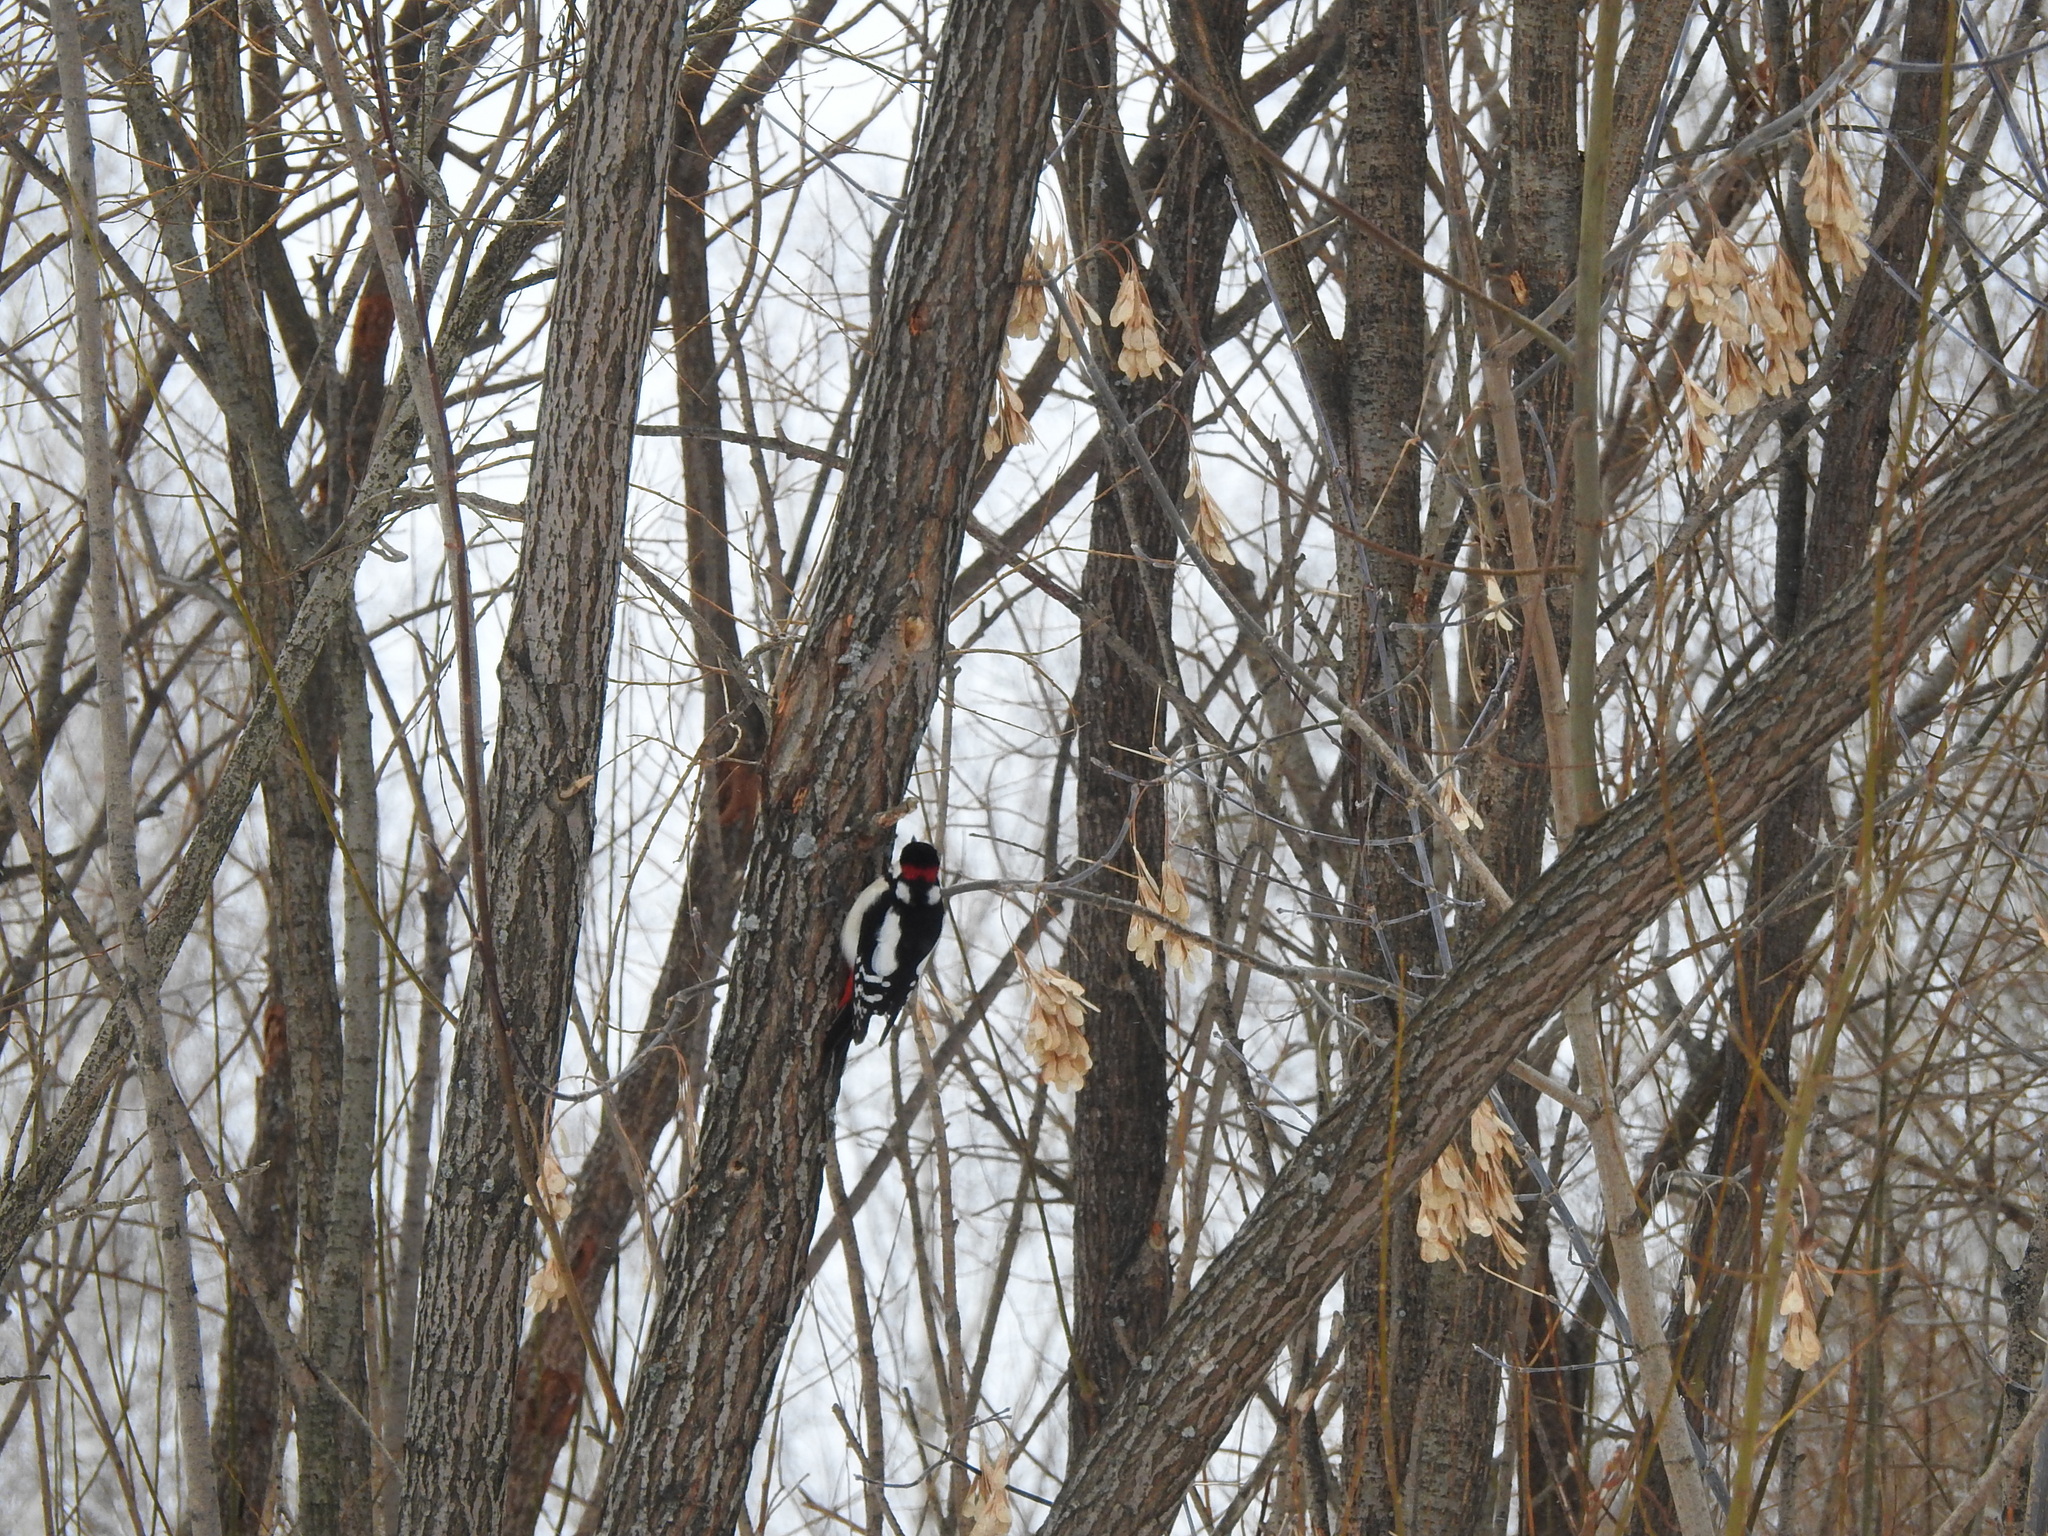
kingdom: Animalia
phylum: Chordata
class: Aves
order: Piciformes
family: Picidae
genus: Dendrocopos
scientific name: Dendrocopos major
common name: Great spotted woodpecker
